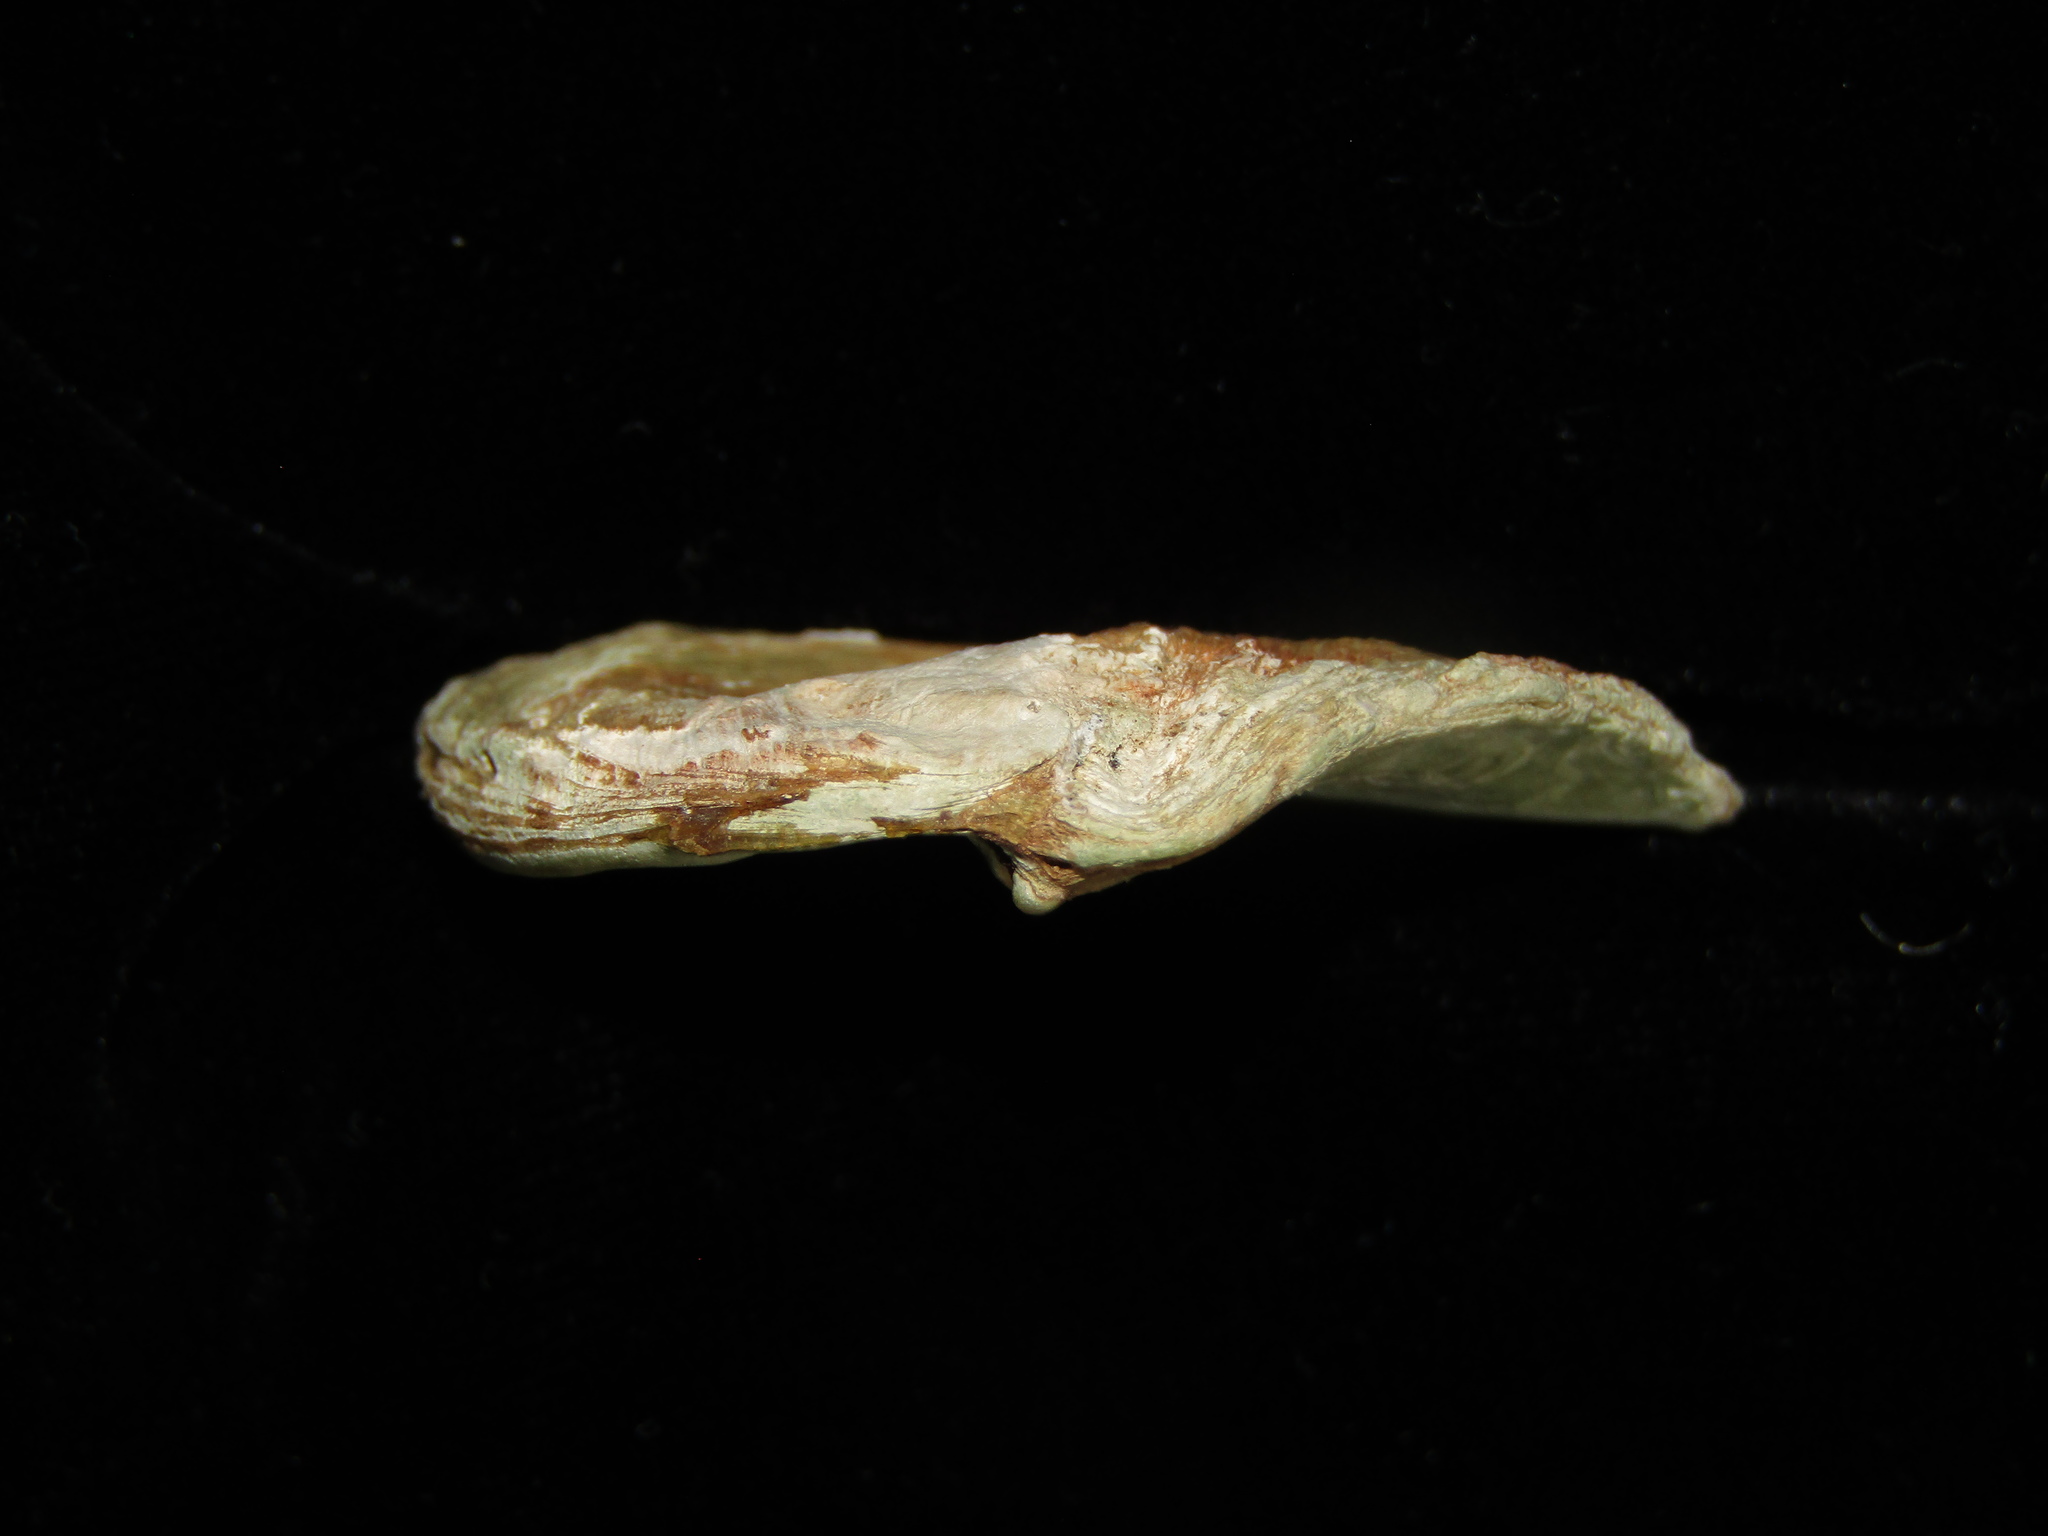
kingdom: Animalia
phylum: Mollusca
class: Bivalvia
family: Cleidothaeridae
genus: Cleidothaerus
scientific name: Cleidothaerus albidus
